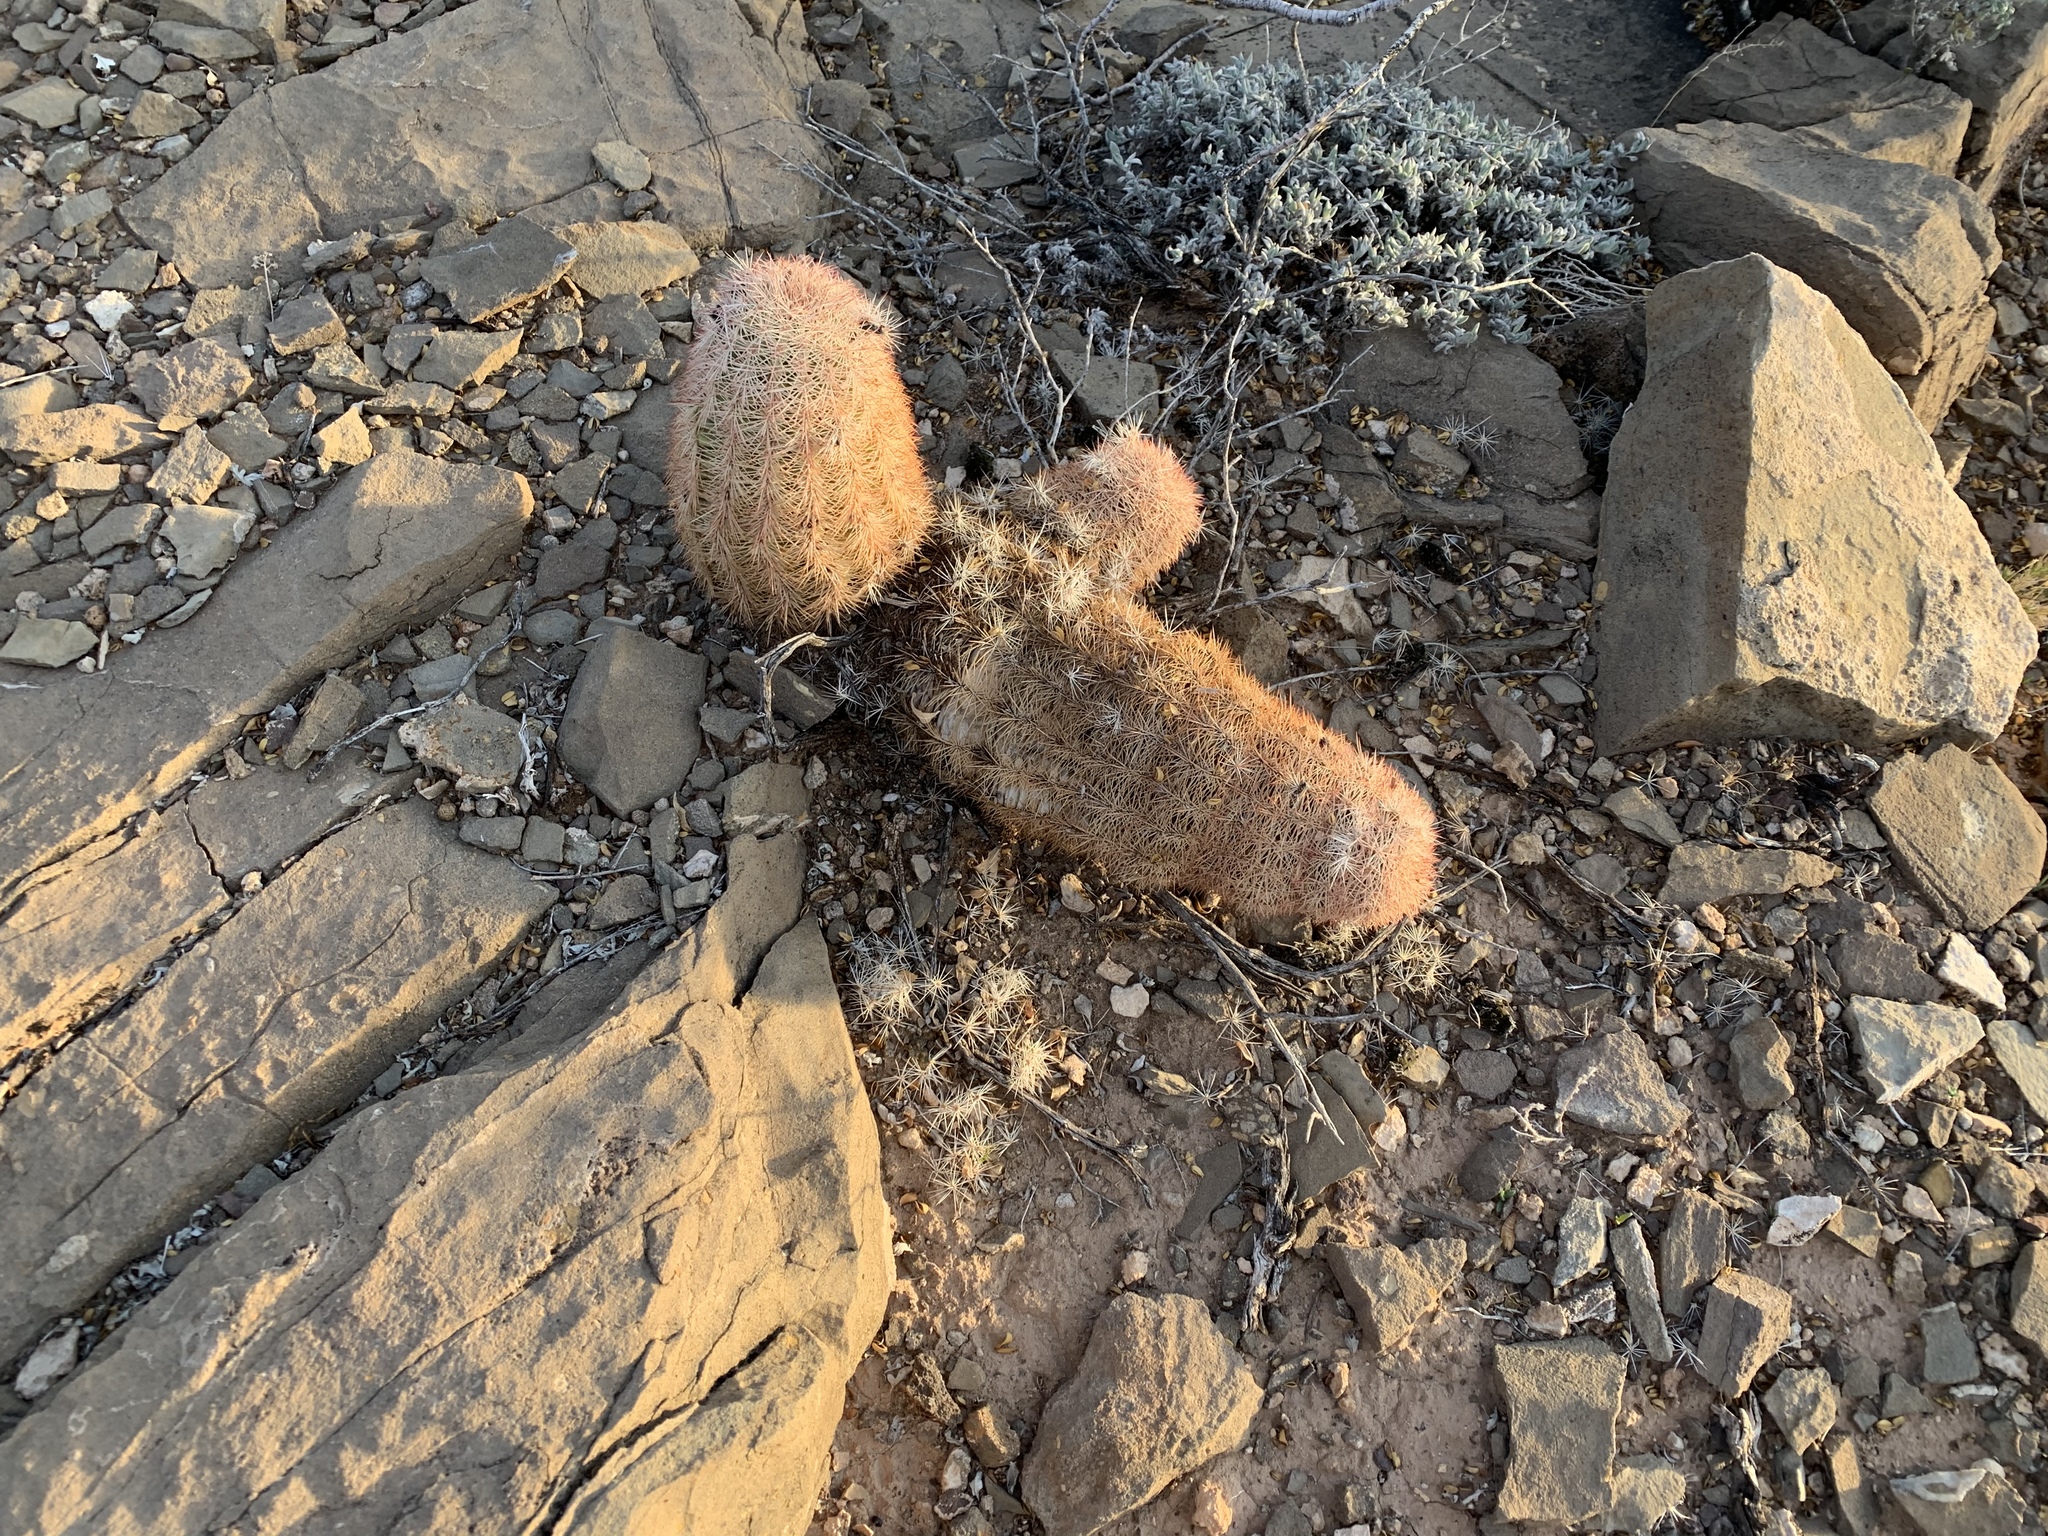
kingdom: Plantae
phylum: Tracheophyta
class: Magnoliopsida
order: Caryophyllales
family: Cactaceae
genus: Echinocereus
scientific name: Echinocereus dasyacanthus
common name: Spiny hedgehog cactus
